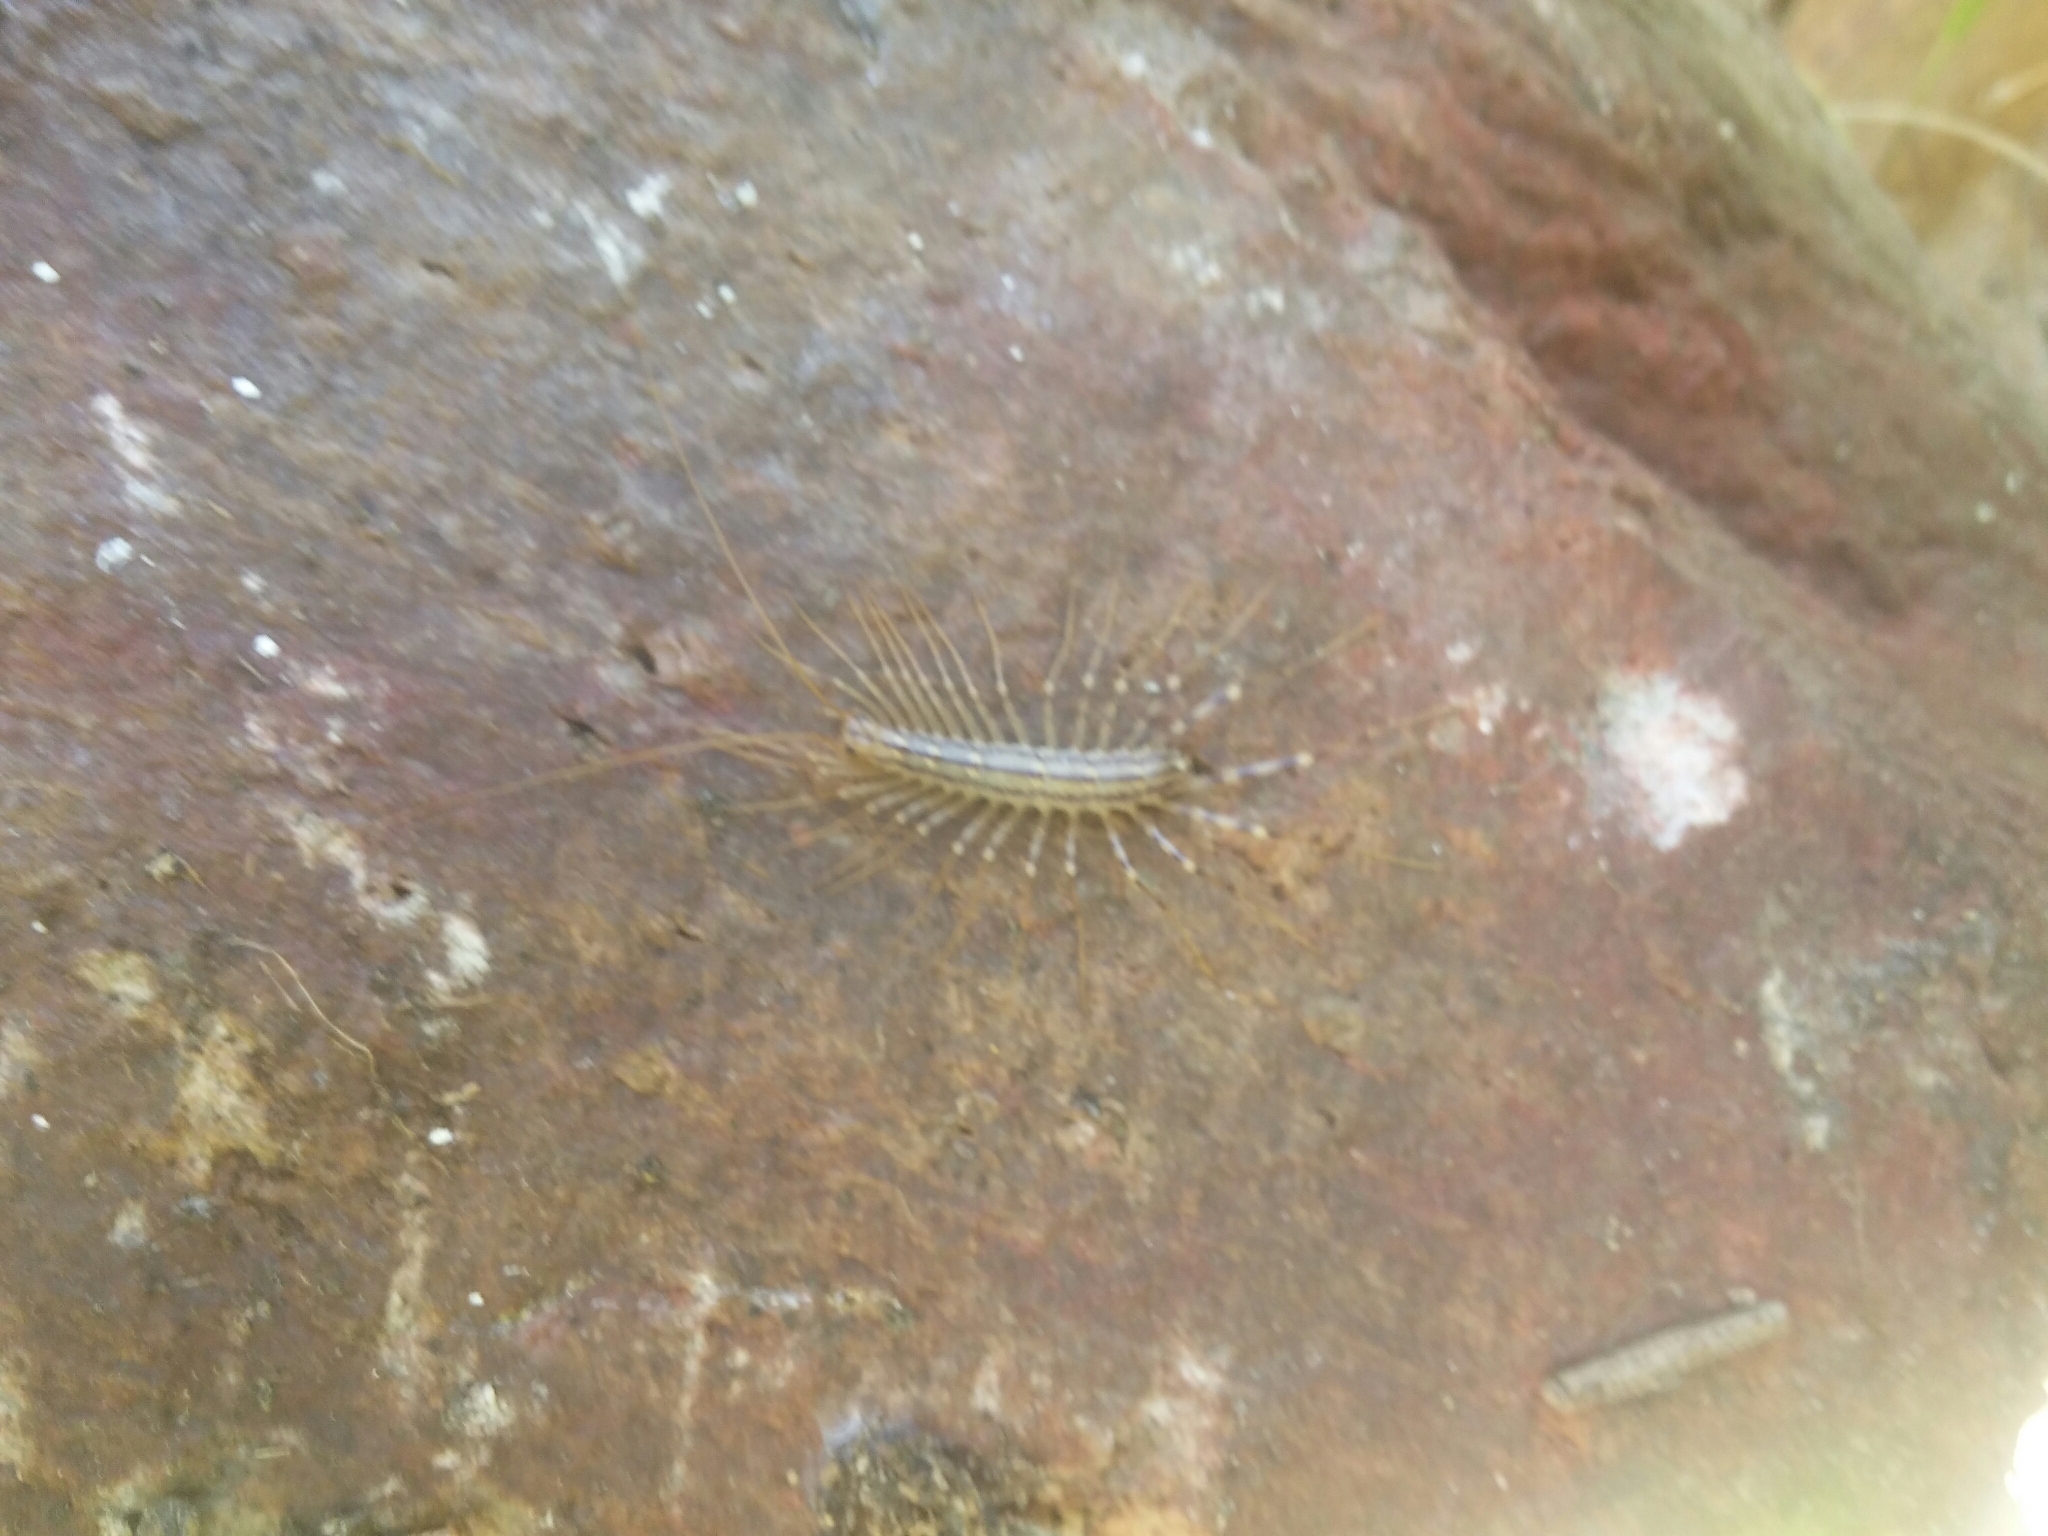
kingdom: Animalia
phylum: Arthropoda
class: Chilopoda
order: Scutigeromorpha
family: Scutigeridae
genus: Scutigera
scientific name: Scutigera coleoptrata
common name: House centipede
